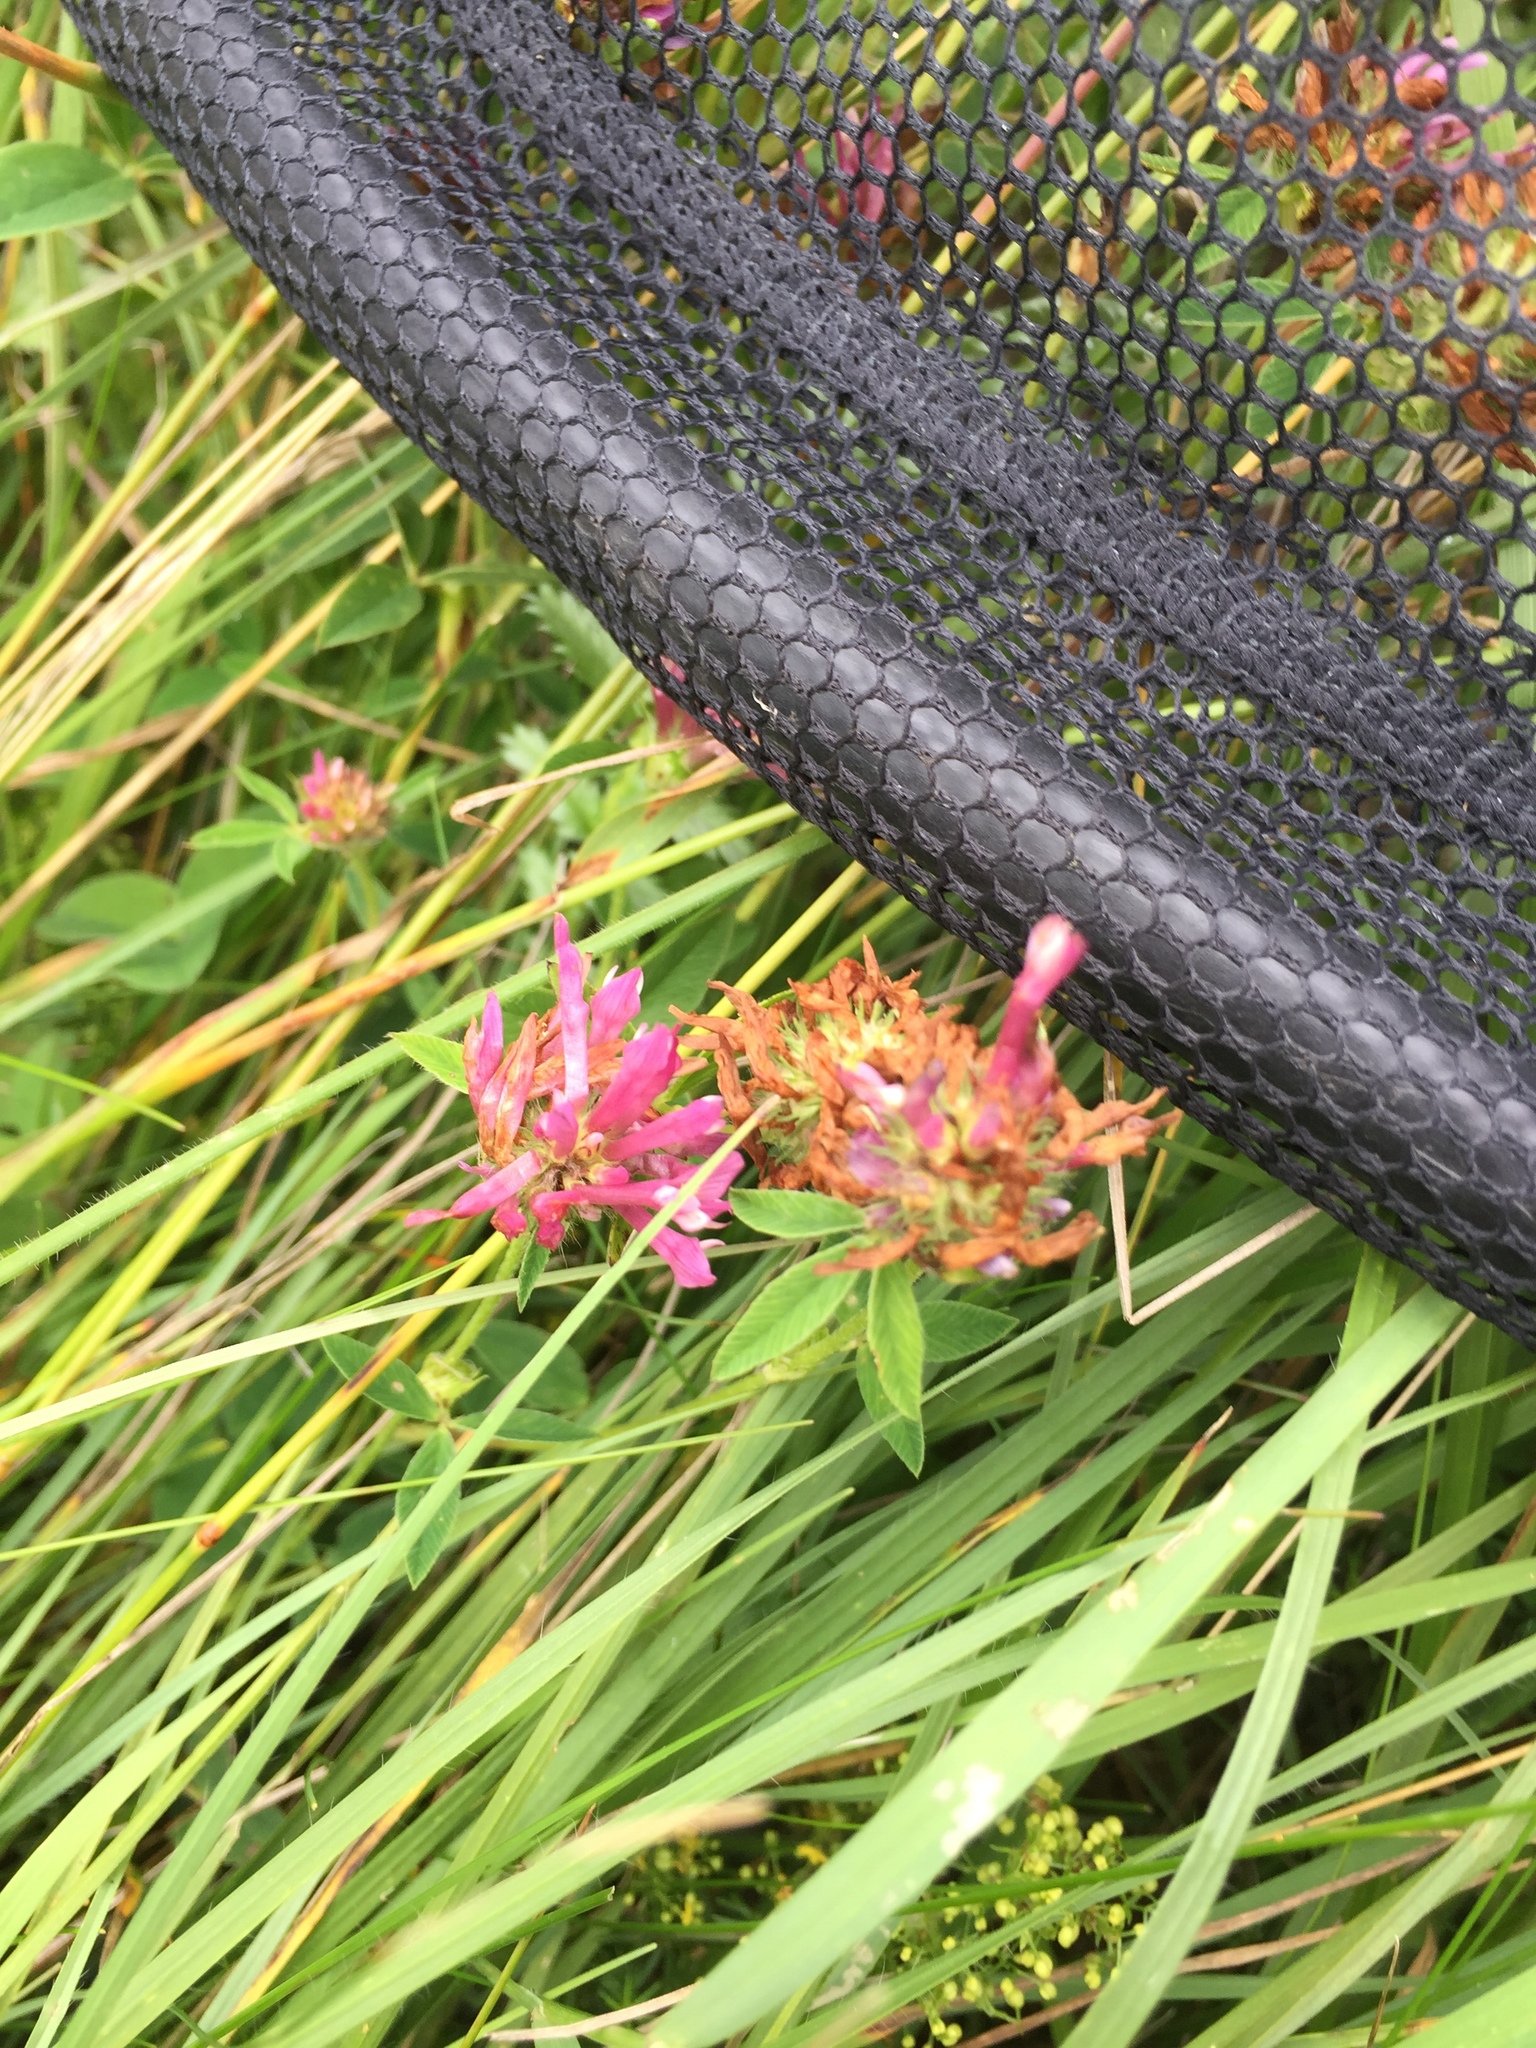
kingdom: Animalia
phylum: Arthropoda
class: Insecta
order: Lepidoptera
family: Nymphalidae
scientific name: Nymphalidae
